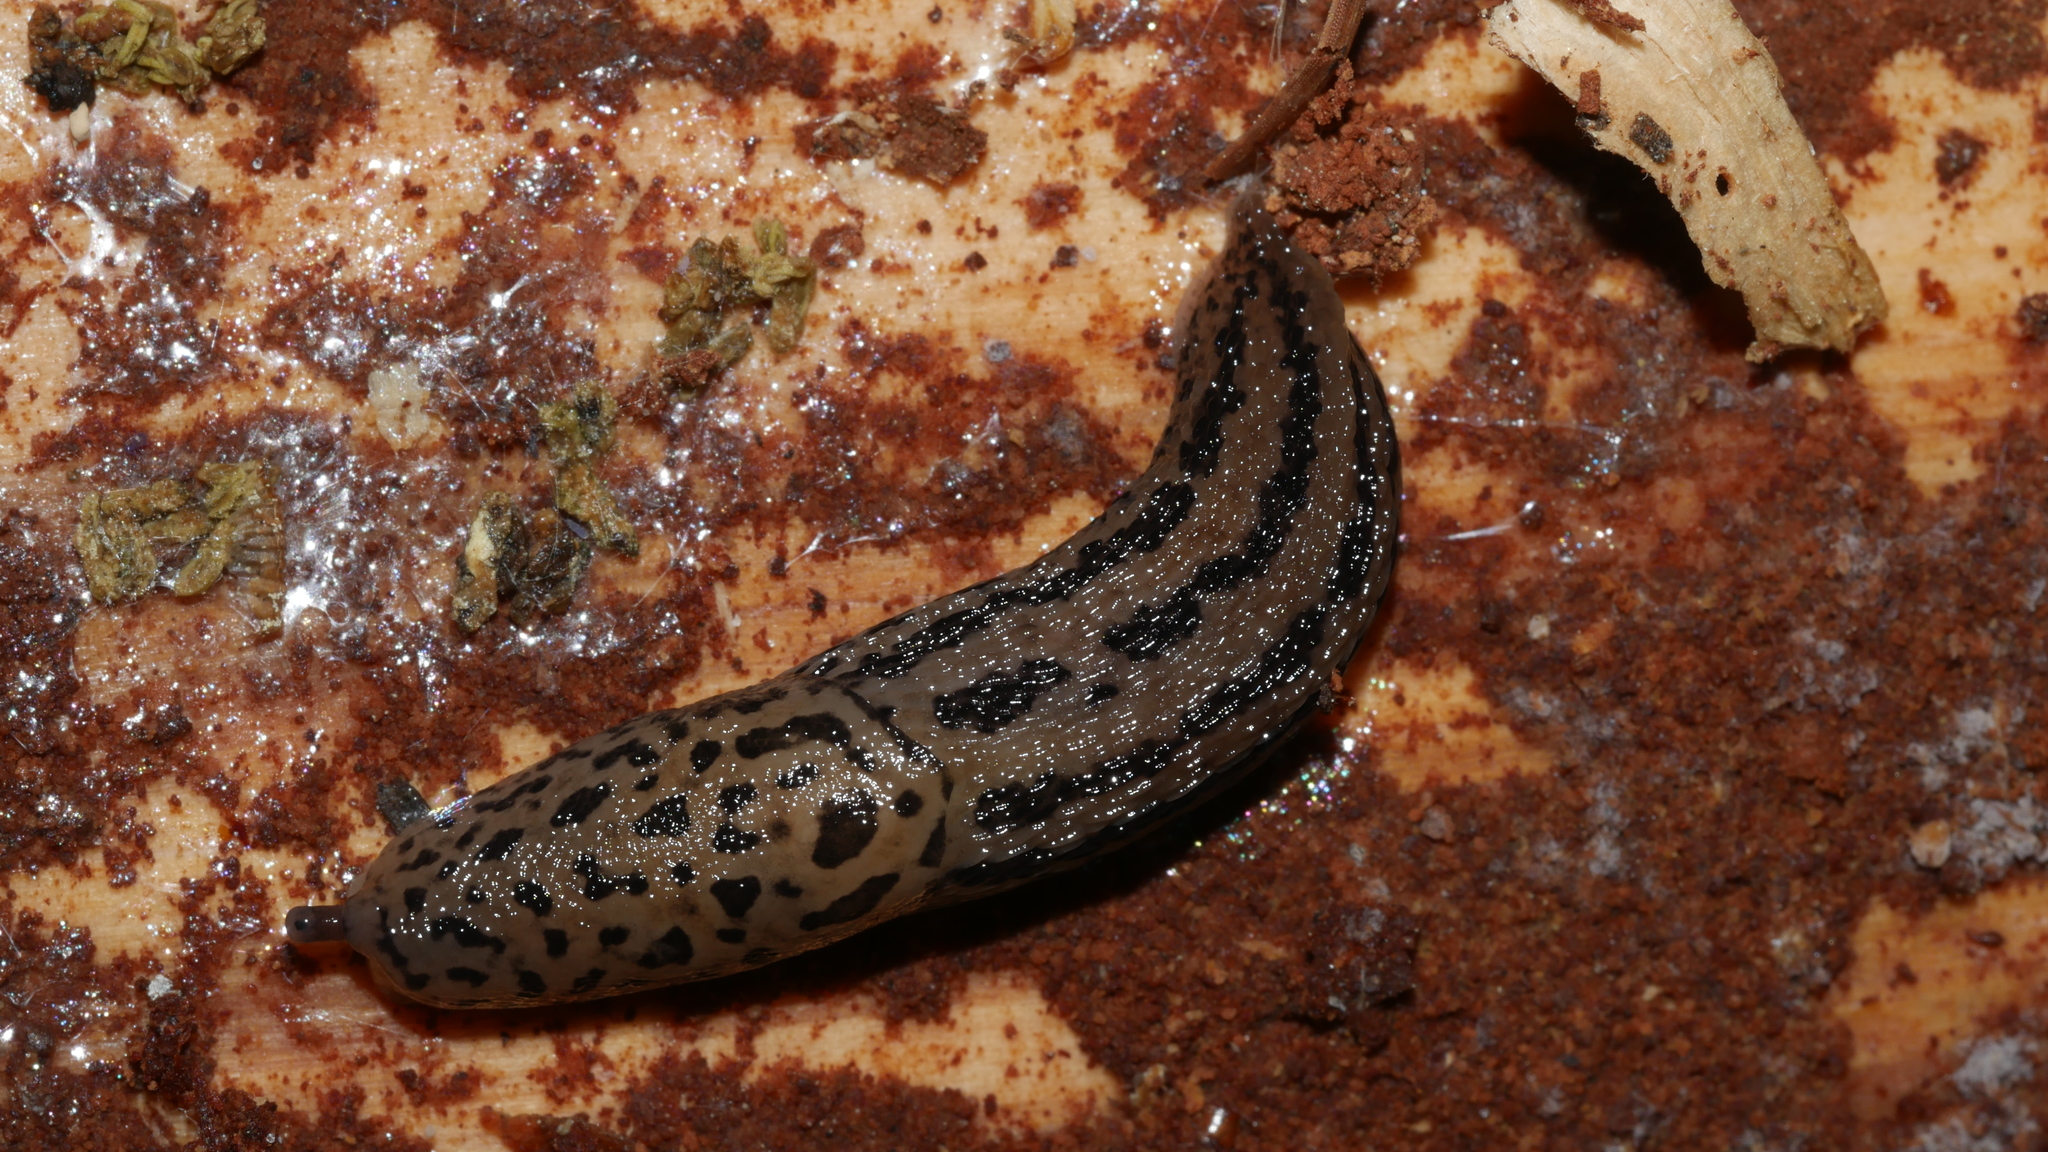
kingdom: Animalia
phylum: Mollusca
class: Gastropoda
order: Stylommatophora
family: Limacidae
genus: Limax
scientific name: Limax maximus
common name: Great grey slug
